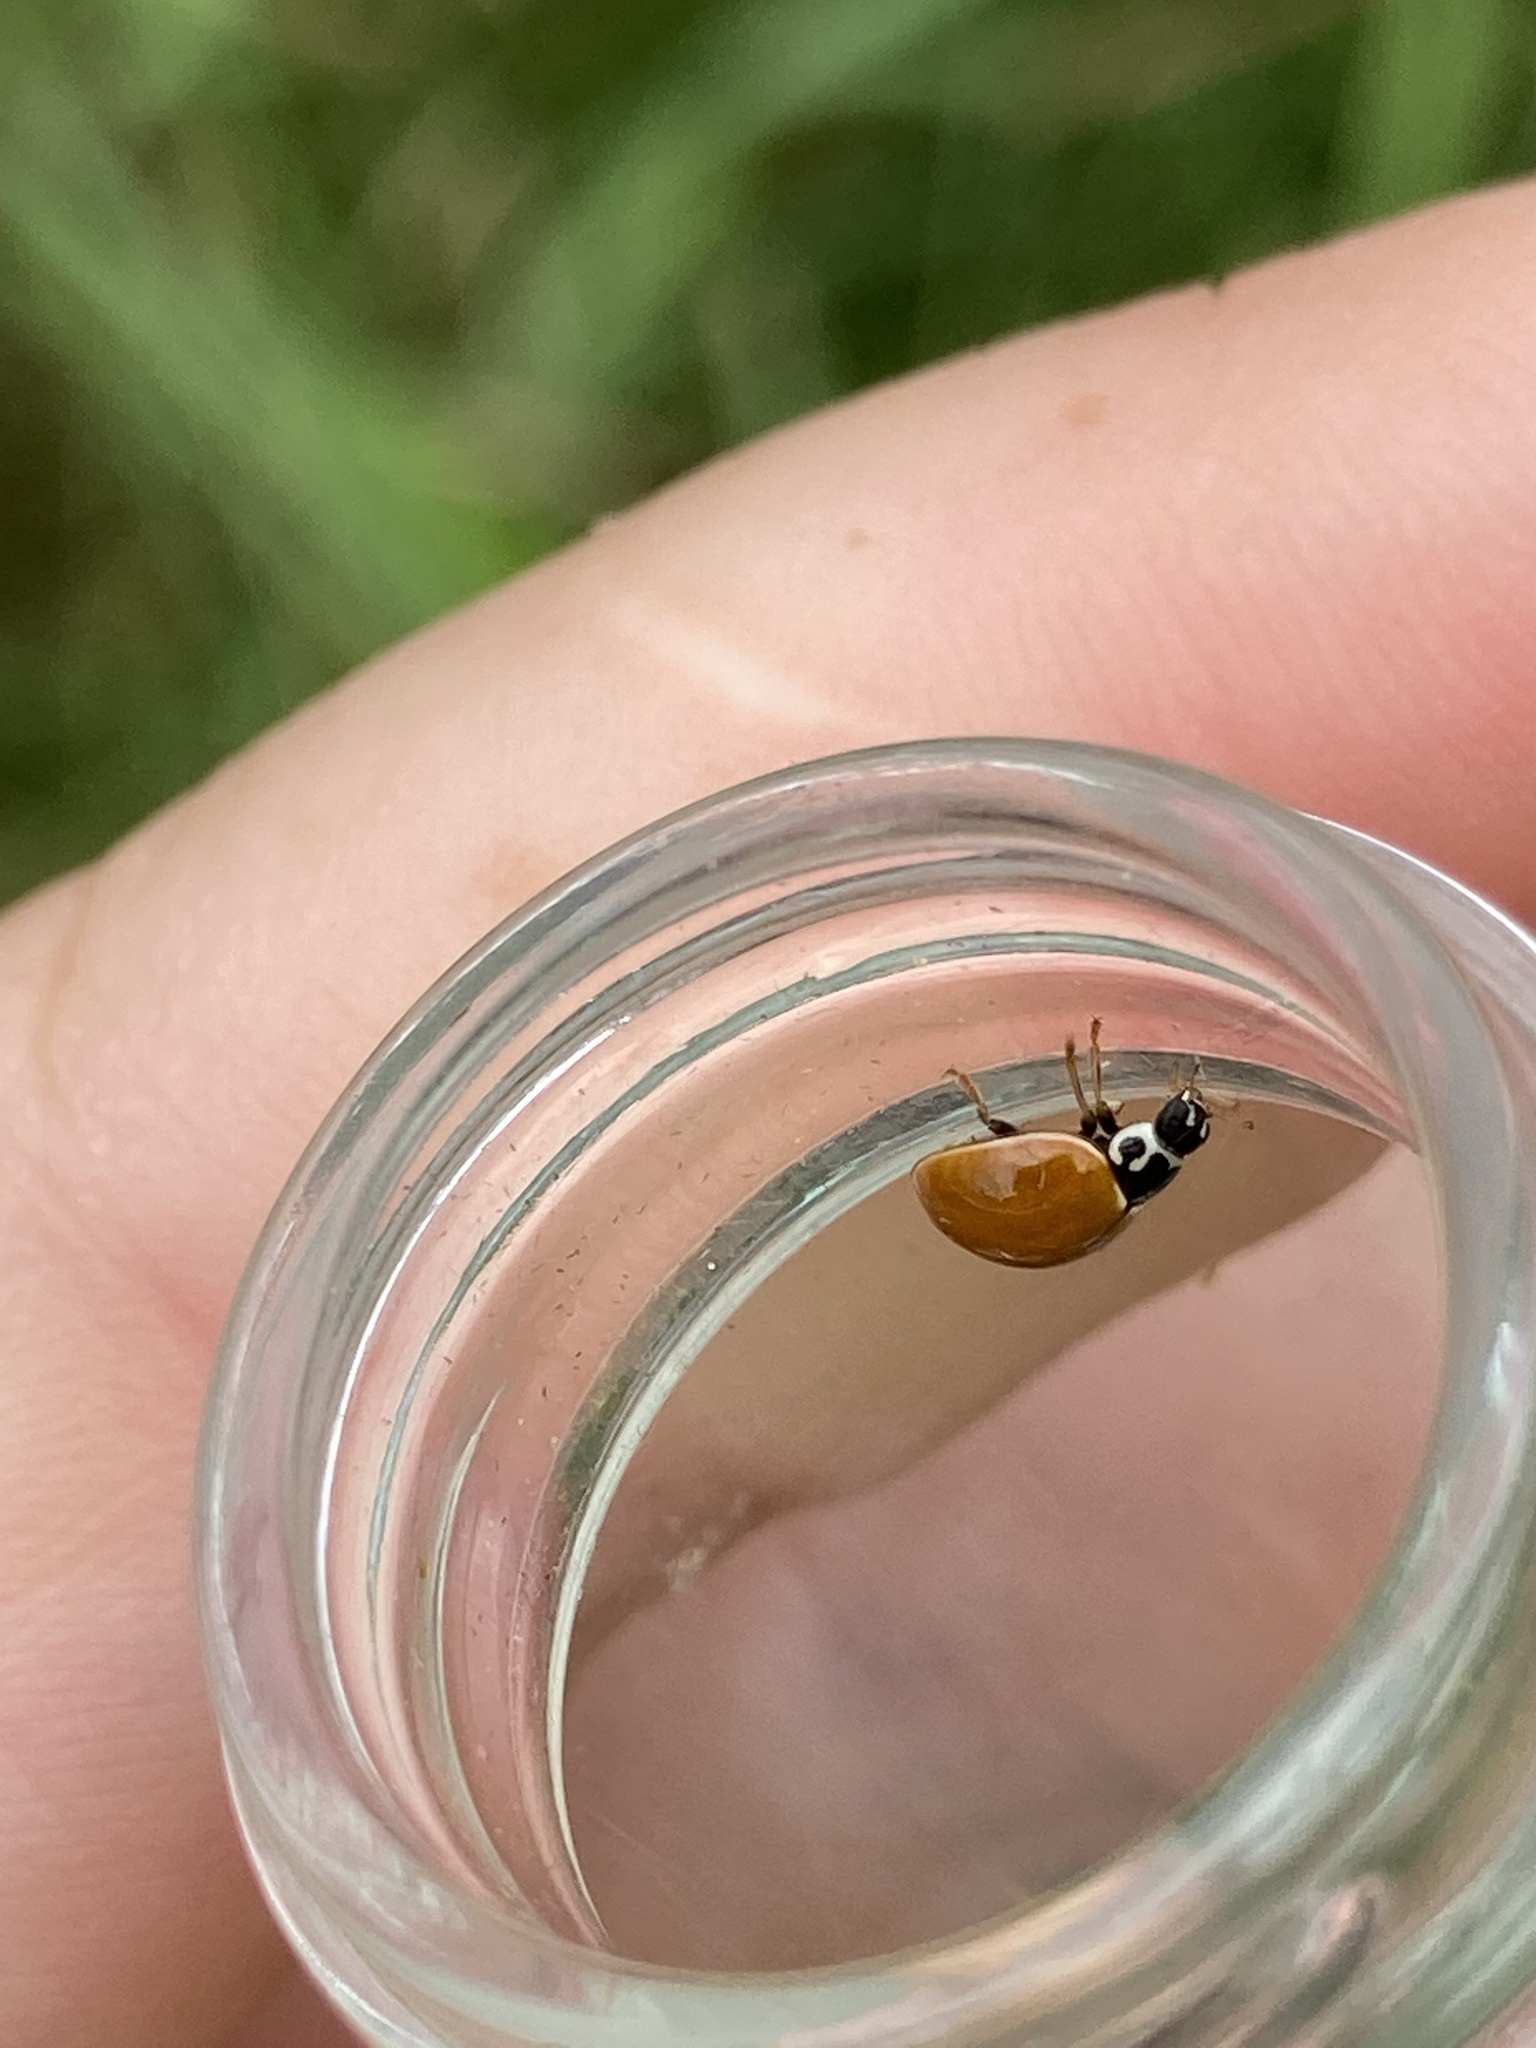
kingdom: Animalia
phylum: Arthropoda
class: Insecta
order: Coleoptera
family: Coccinellidae
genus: Cycloneda
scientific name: Cycloneda munda
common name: Polished lady beetle
